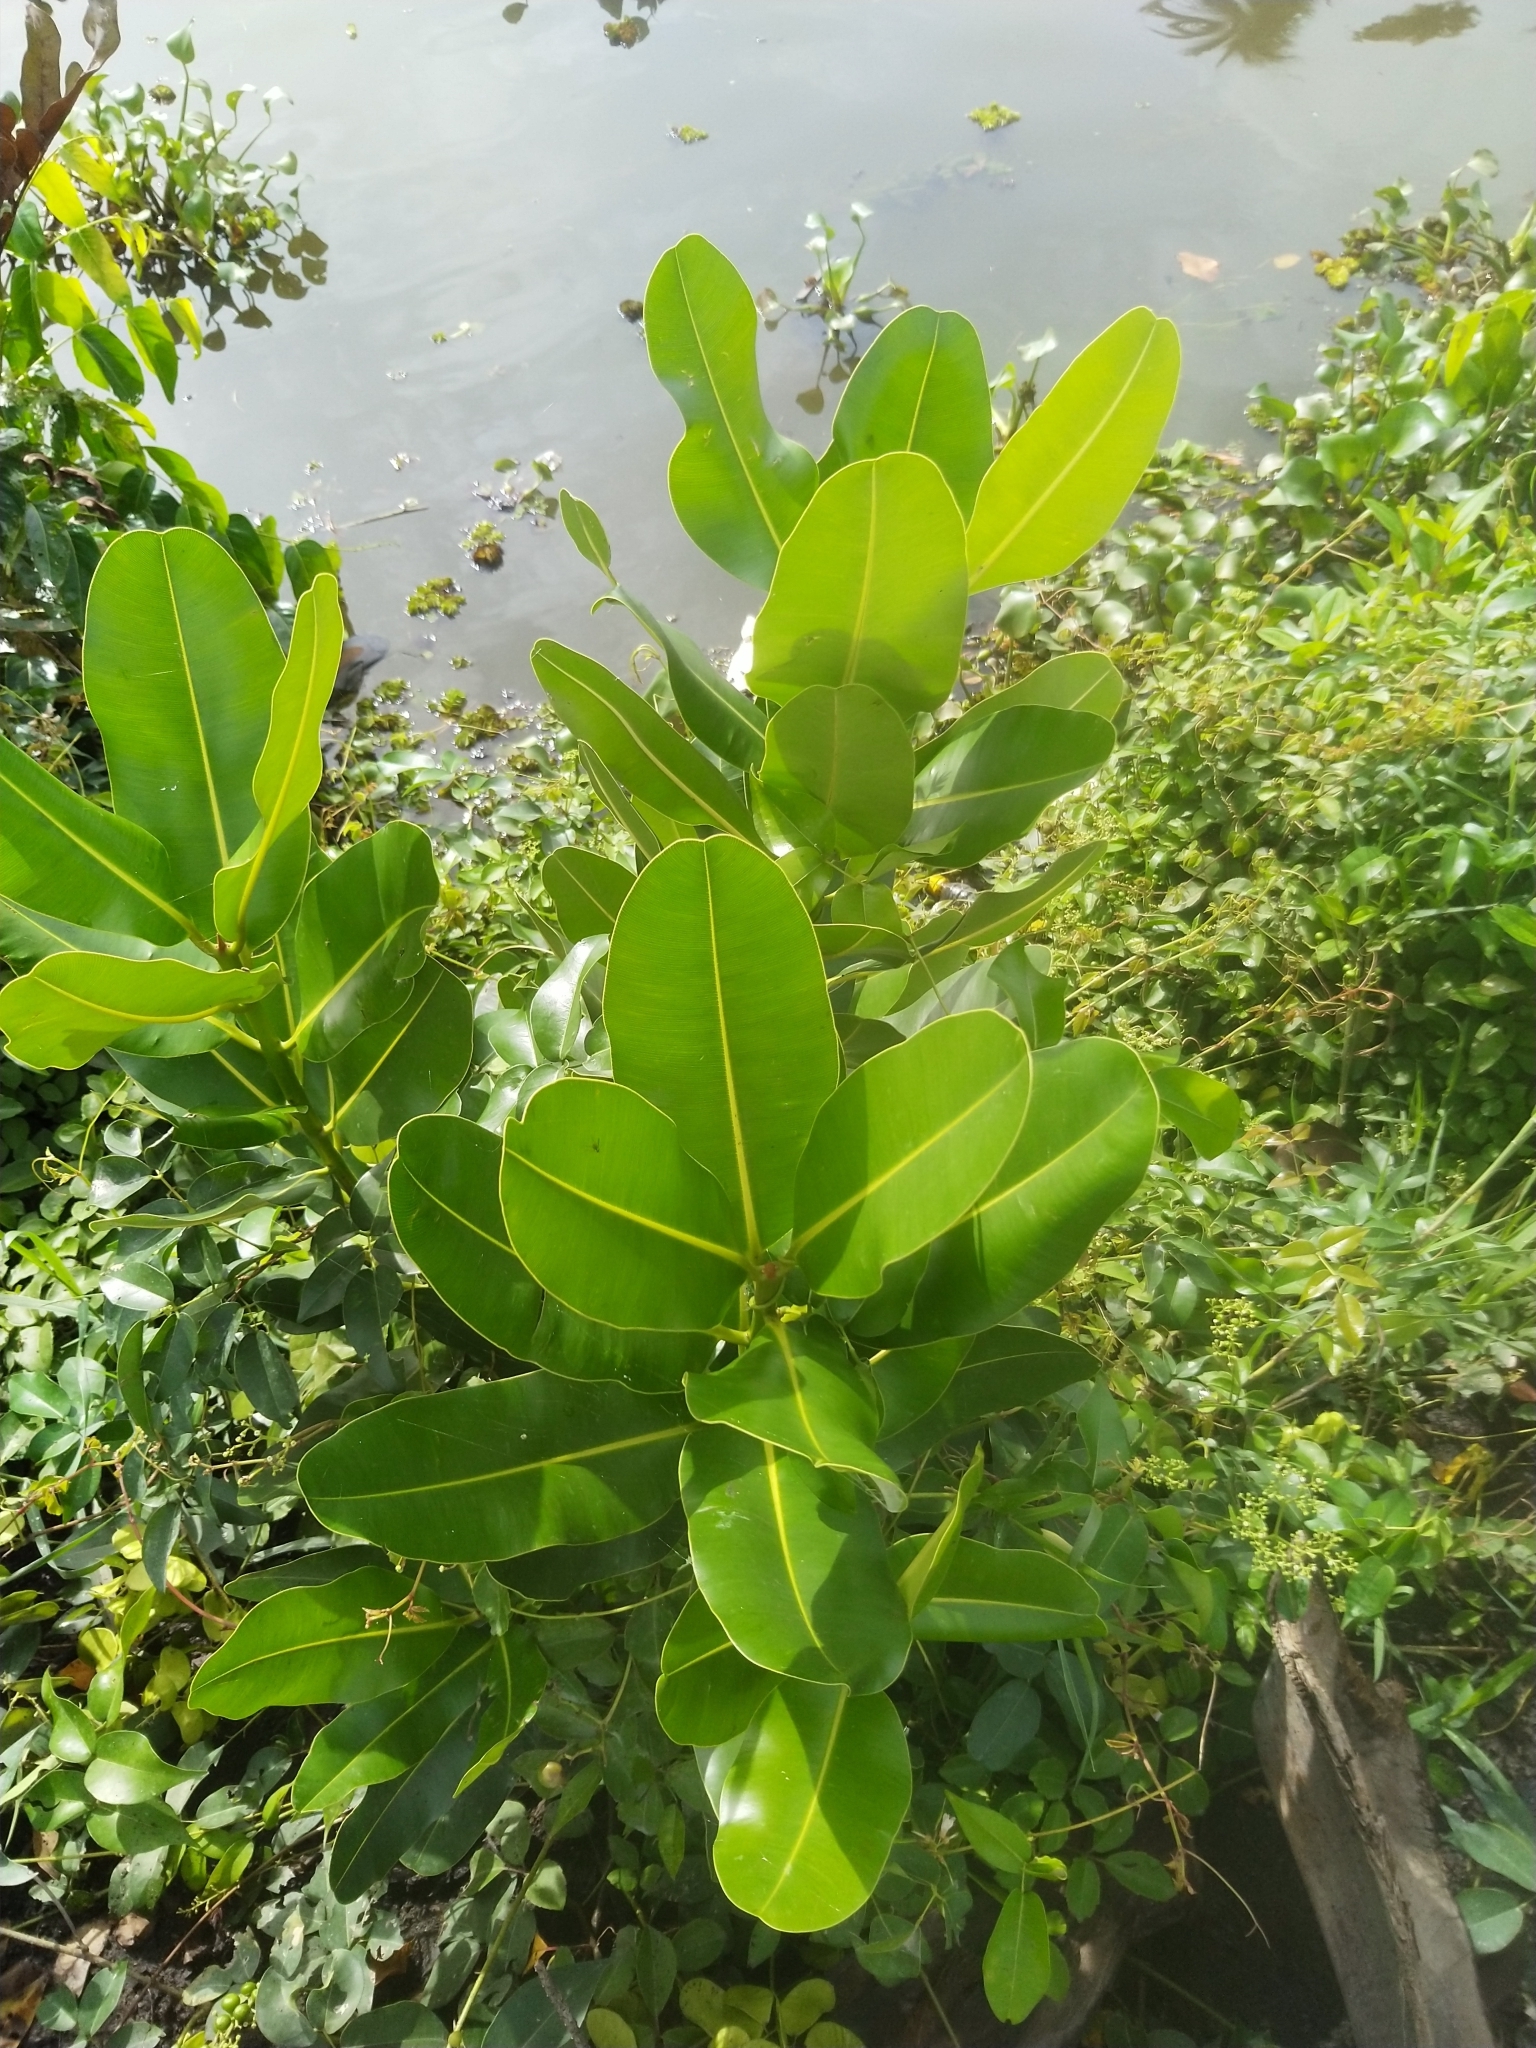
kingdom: Plantae
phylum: Tracheophyta
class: Magnoliopsida
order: Malpighiales
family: Calophyllaceae
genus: Calophyllum
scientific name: Calophyllum inophyllum
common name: Alexandrian laurel
